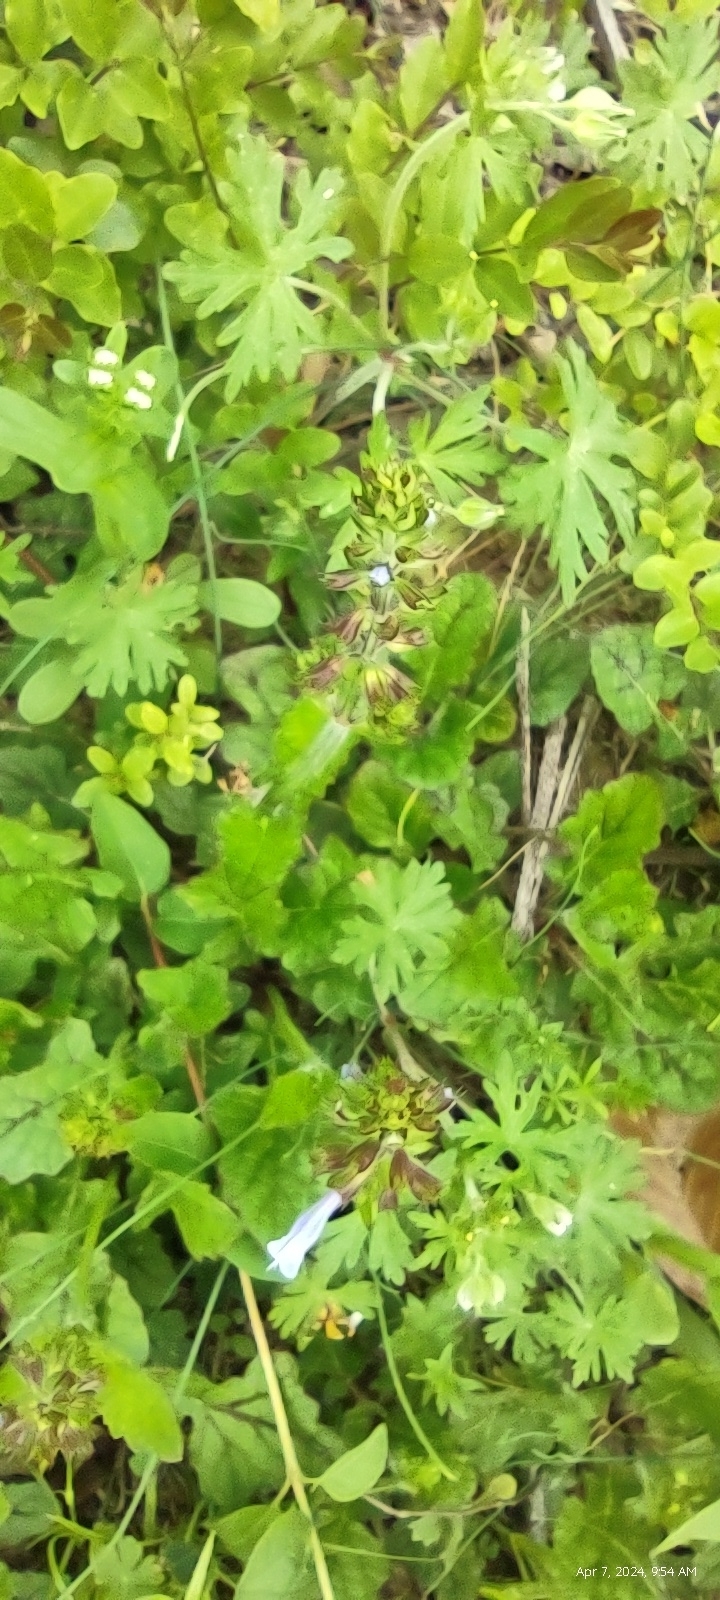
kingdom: Plantae
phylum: Tracheophyta
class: Magnoliopsida
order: Lamiales
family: Lamiaceae
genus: Salvia
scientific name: Salvia lyrata
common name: Cancerweed
